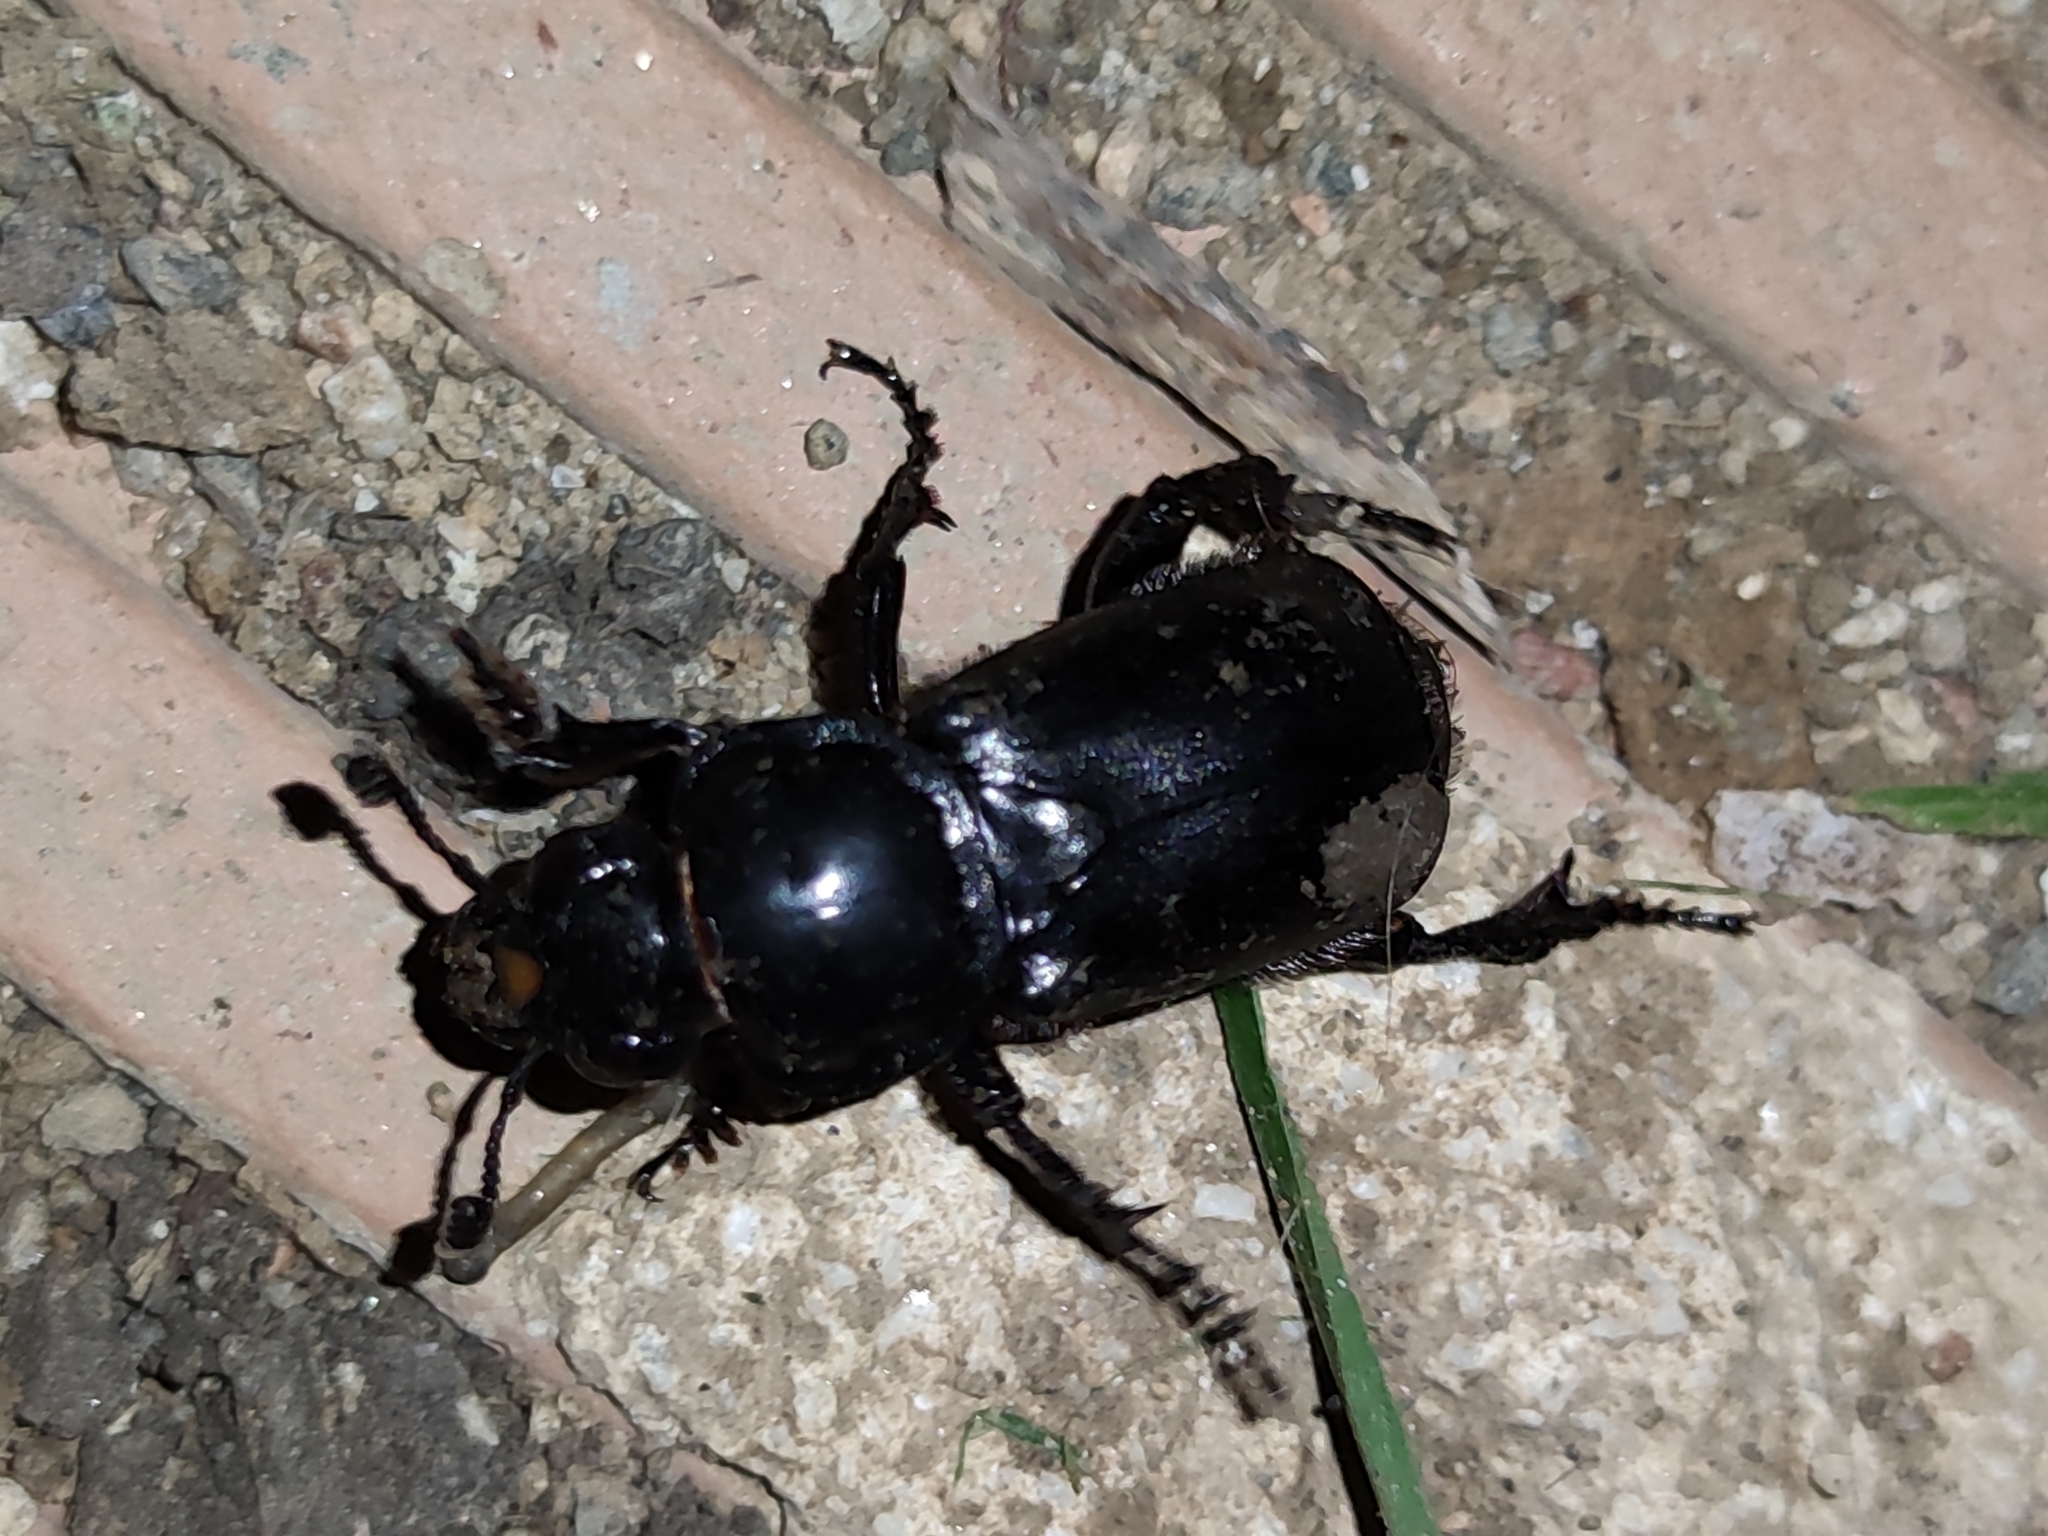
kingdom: Animalia
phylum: Arthropoda
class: Insecta
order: Coleoptera
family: Staphylinidae
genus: Nicrophorus
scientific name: Nicrophorus germanicus
